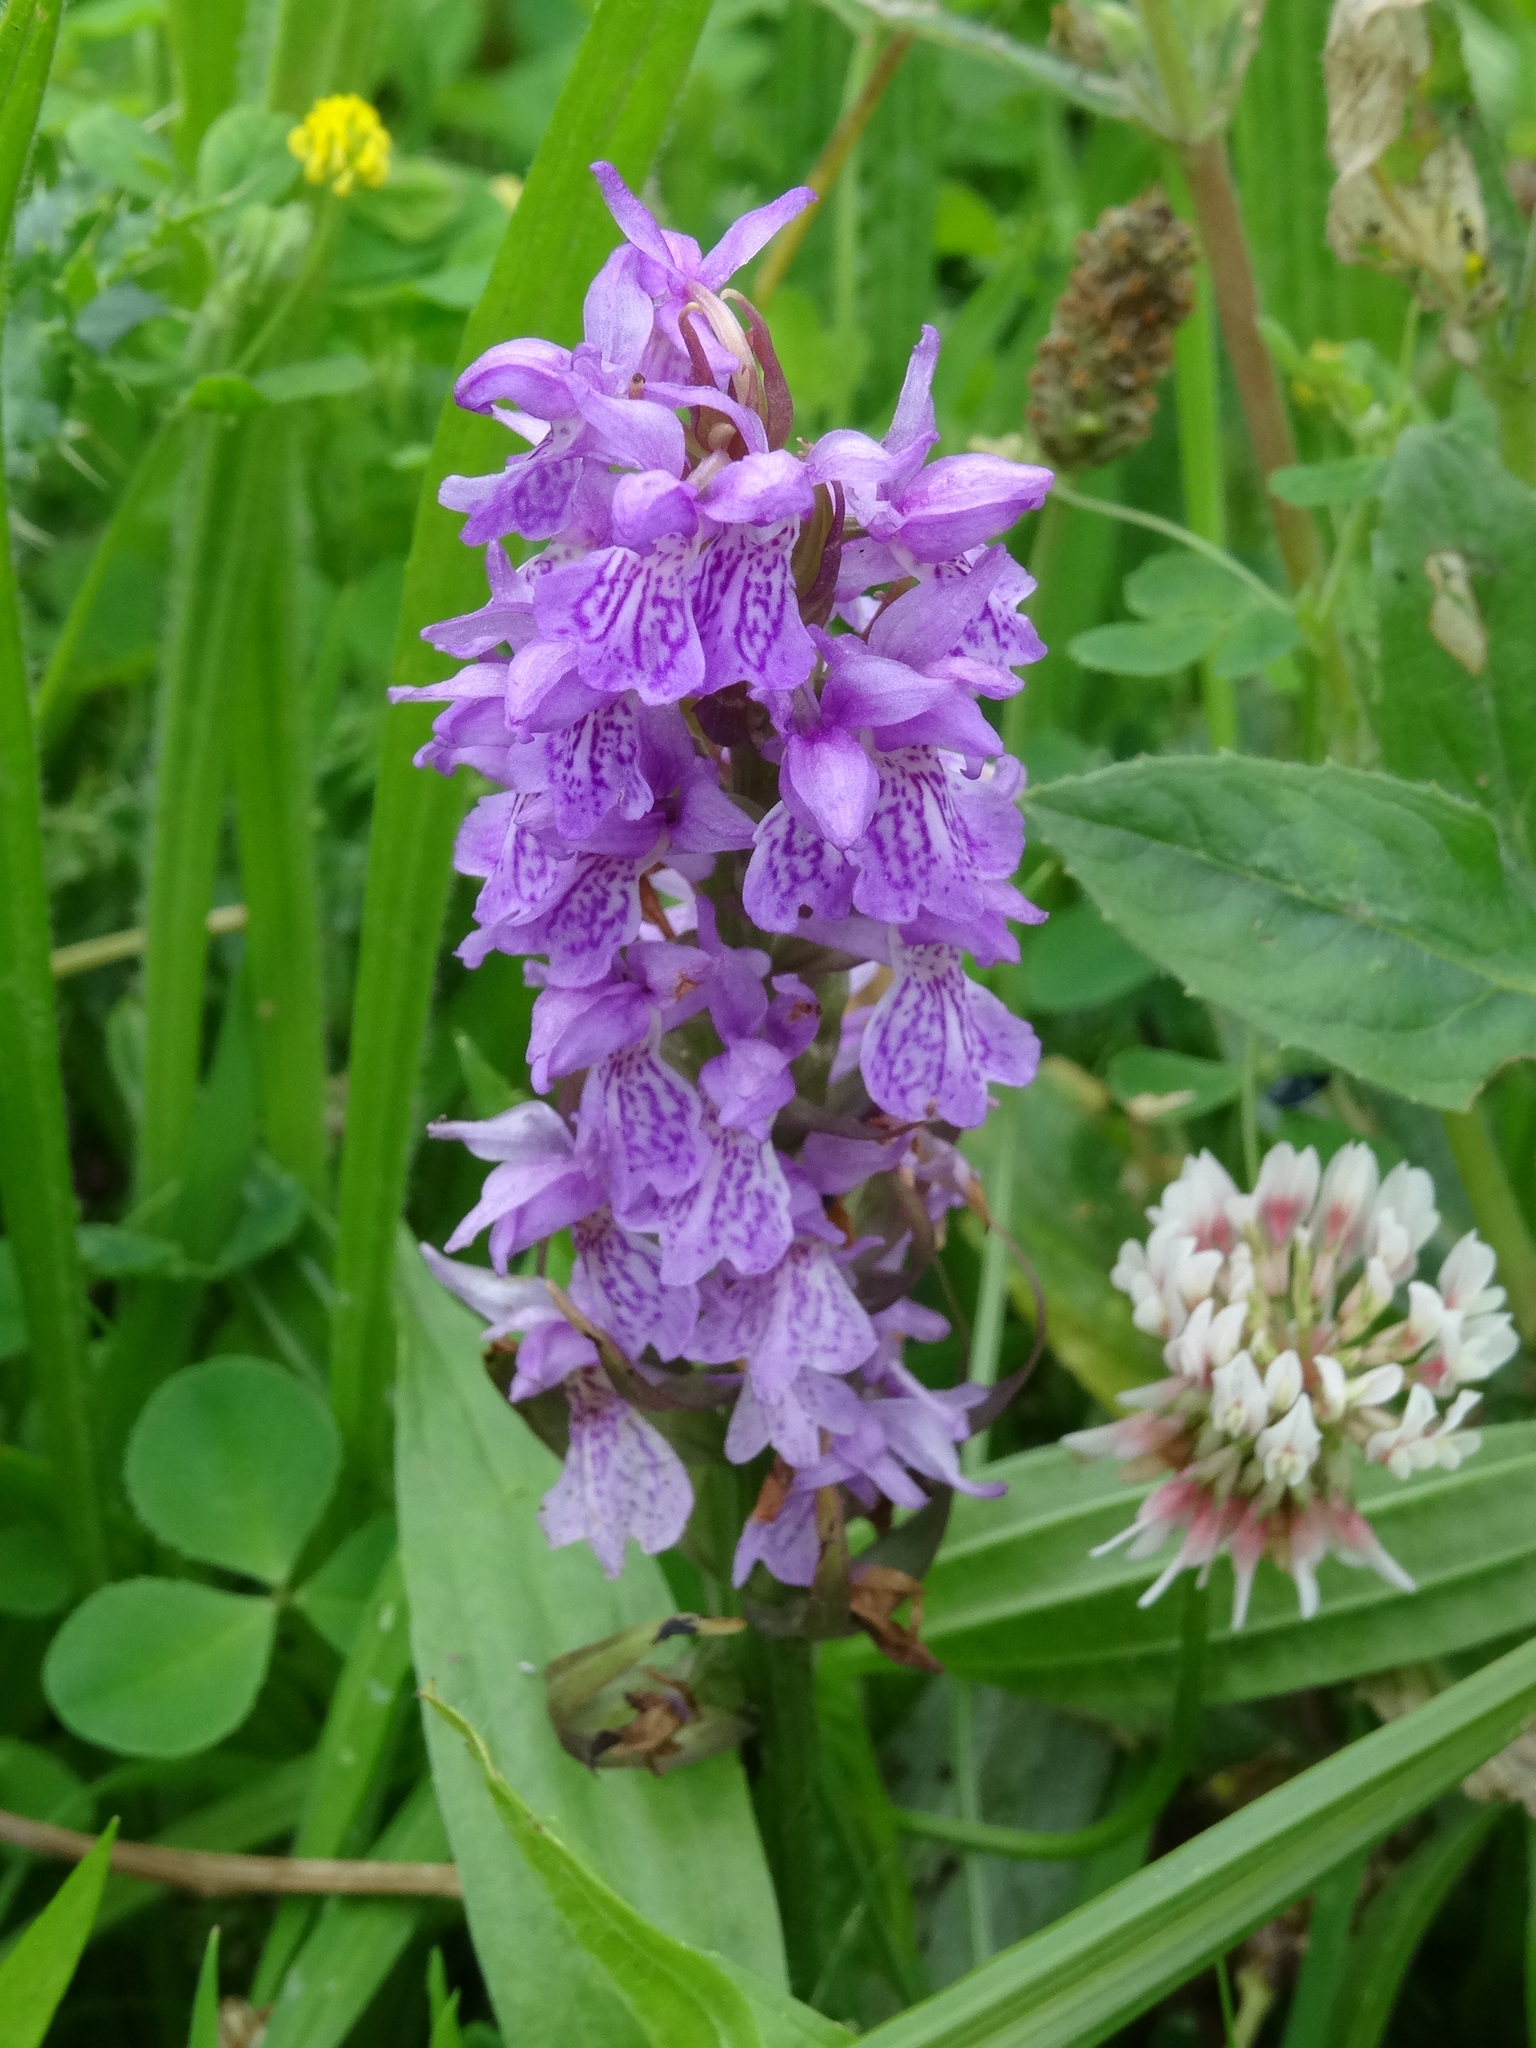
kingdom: Plantae
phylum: Tracheophyta
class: Liliopsida
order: Asparagales
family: Orchidaceae
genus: Dactylorhiza
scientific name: Dactylorhiza maculata
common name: Heath spotted-orchid
